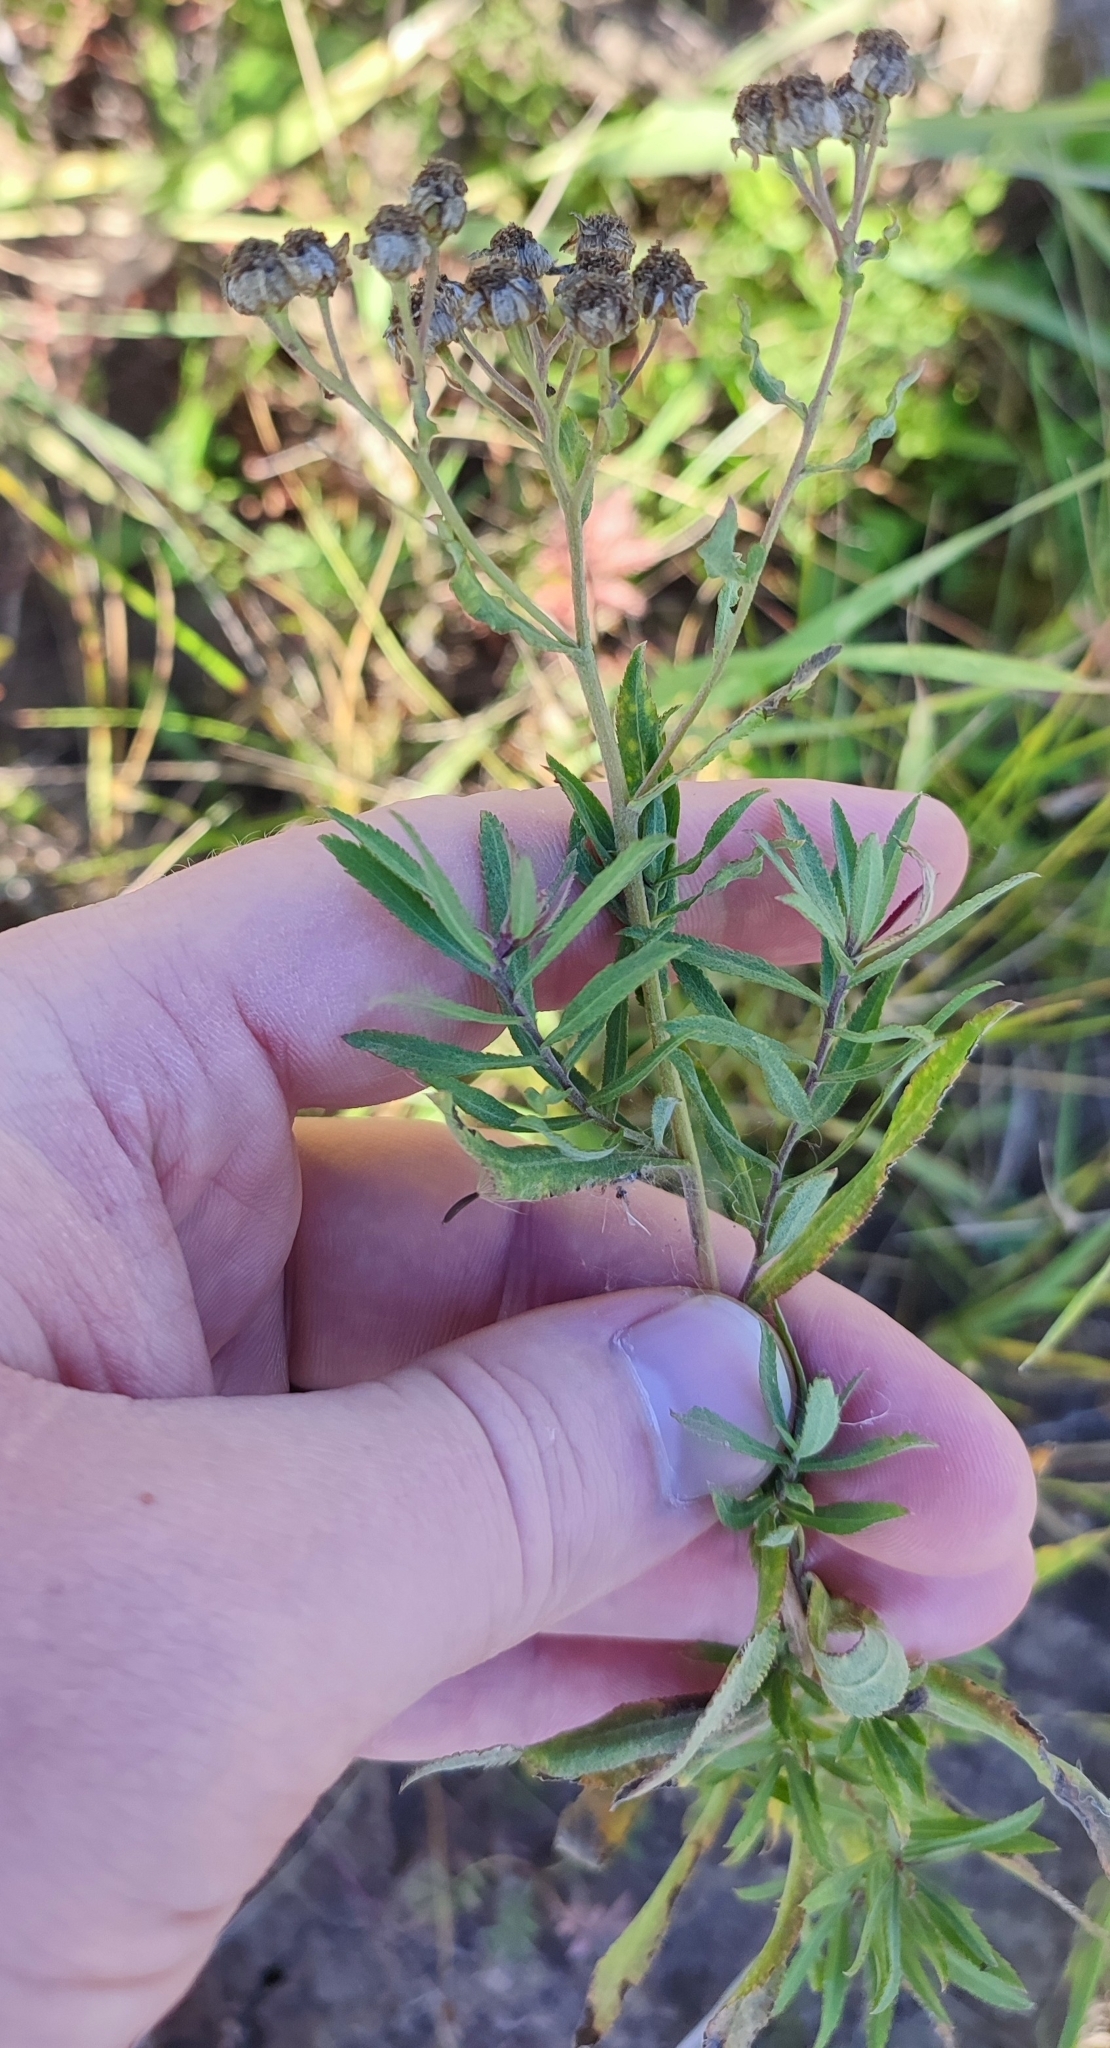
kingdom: Plantae
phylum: Tracheophyta
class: Magnoliopsida
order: Asterales
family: Asteraceae
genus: Achillea
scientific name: Achillea salicifolia
